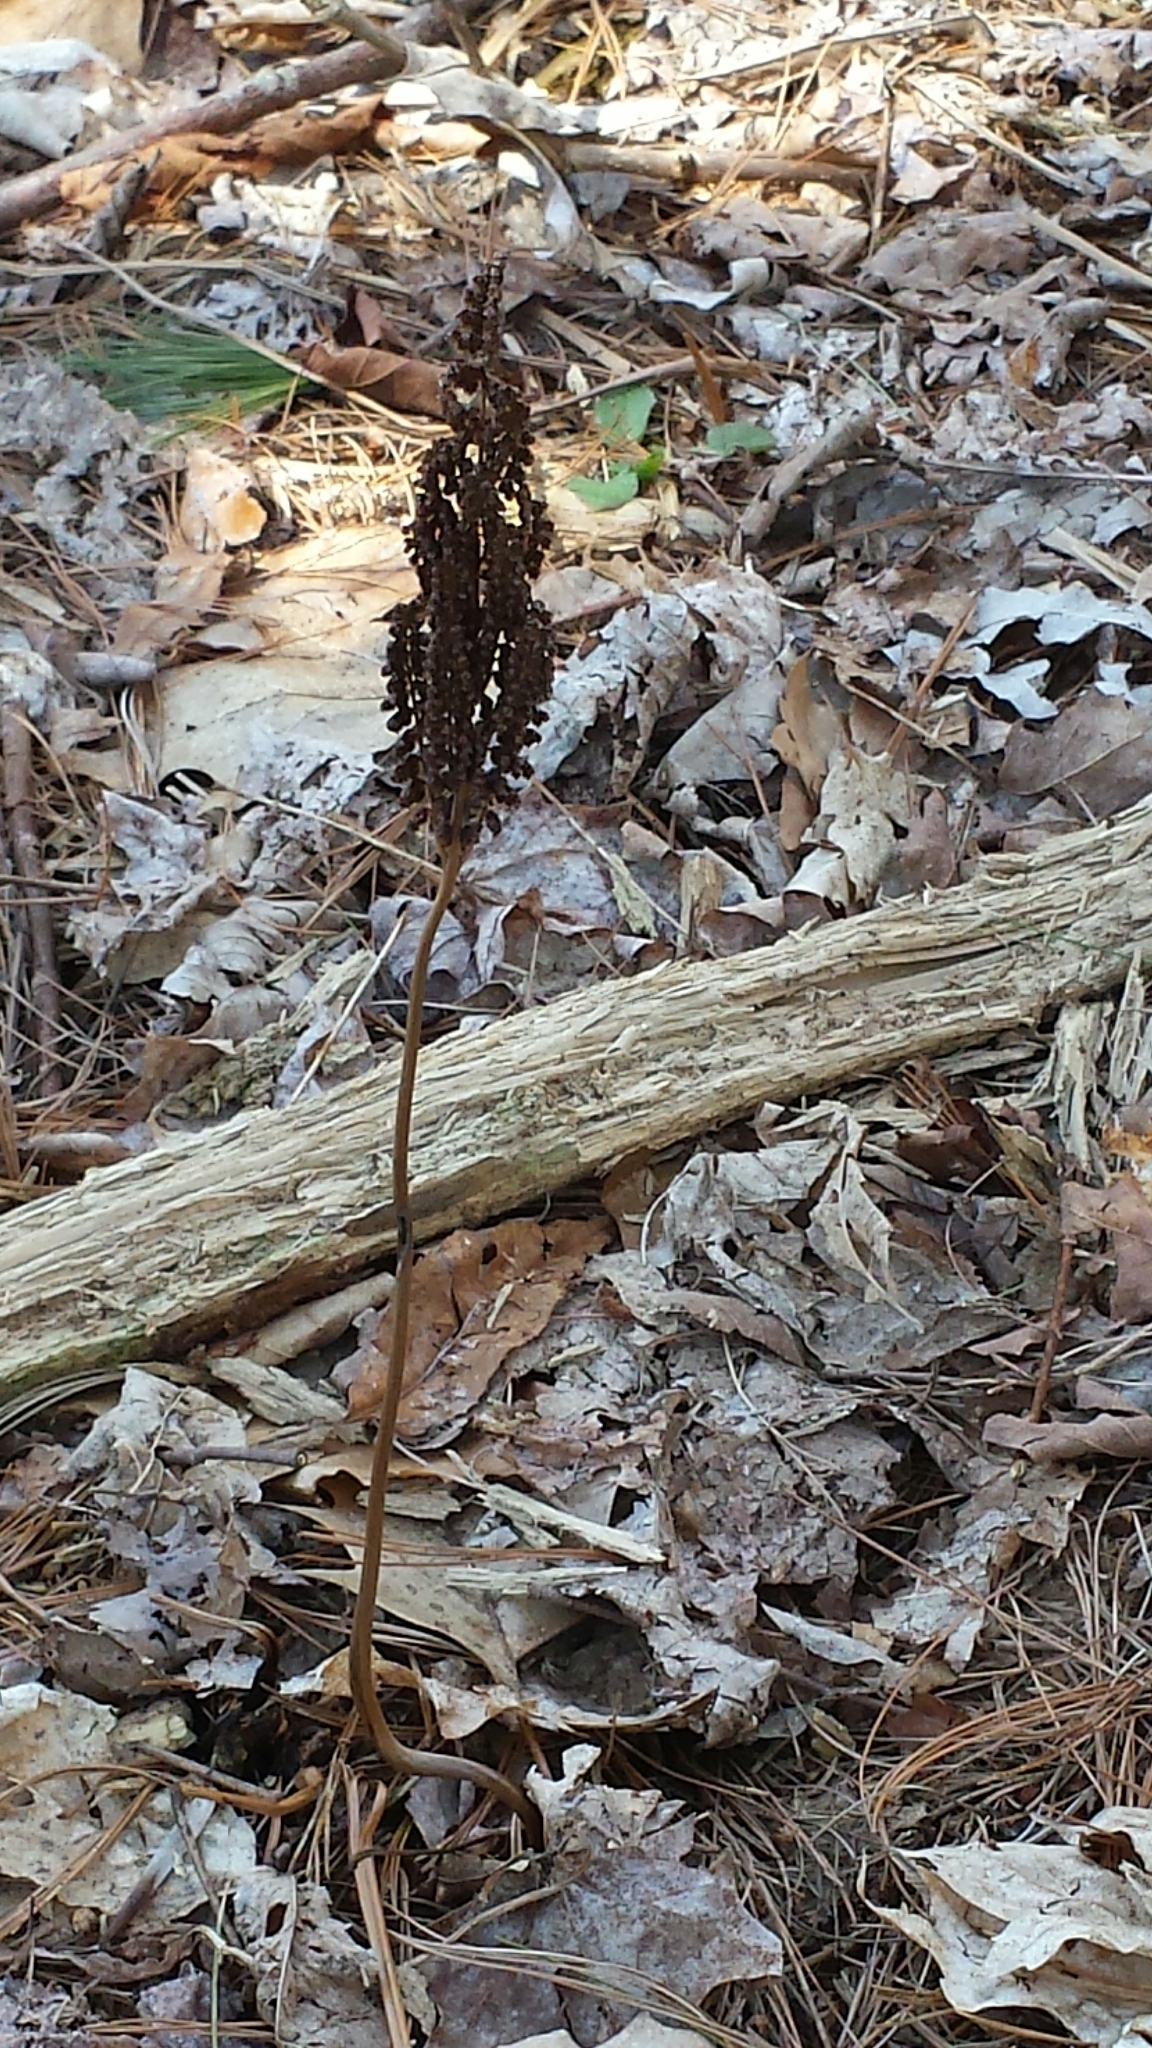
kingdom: Plantae
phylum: Tracheophyta
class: Polypodiopsida
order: Polypodiales
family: Onocleaceae
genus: Onoclea
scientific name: Onoclea sensibilis
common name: Sensitive fern
